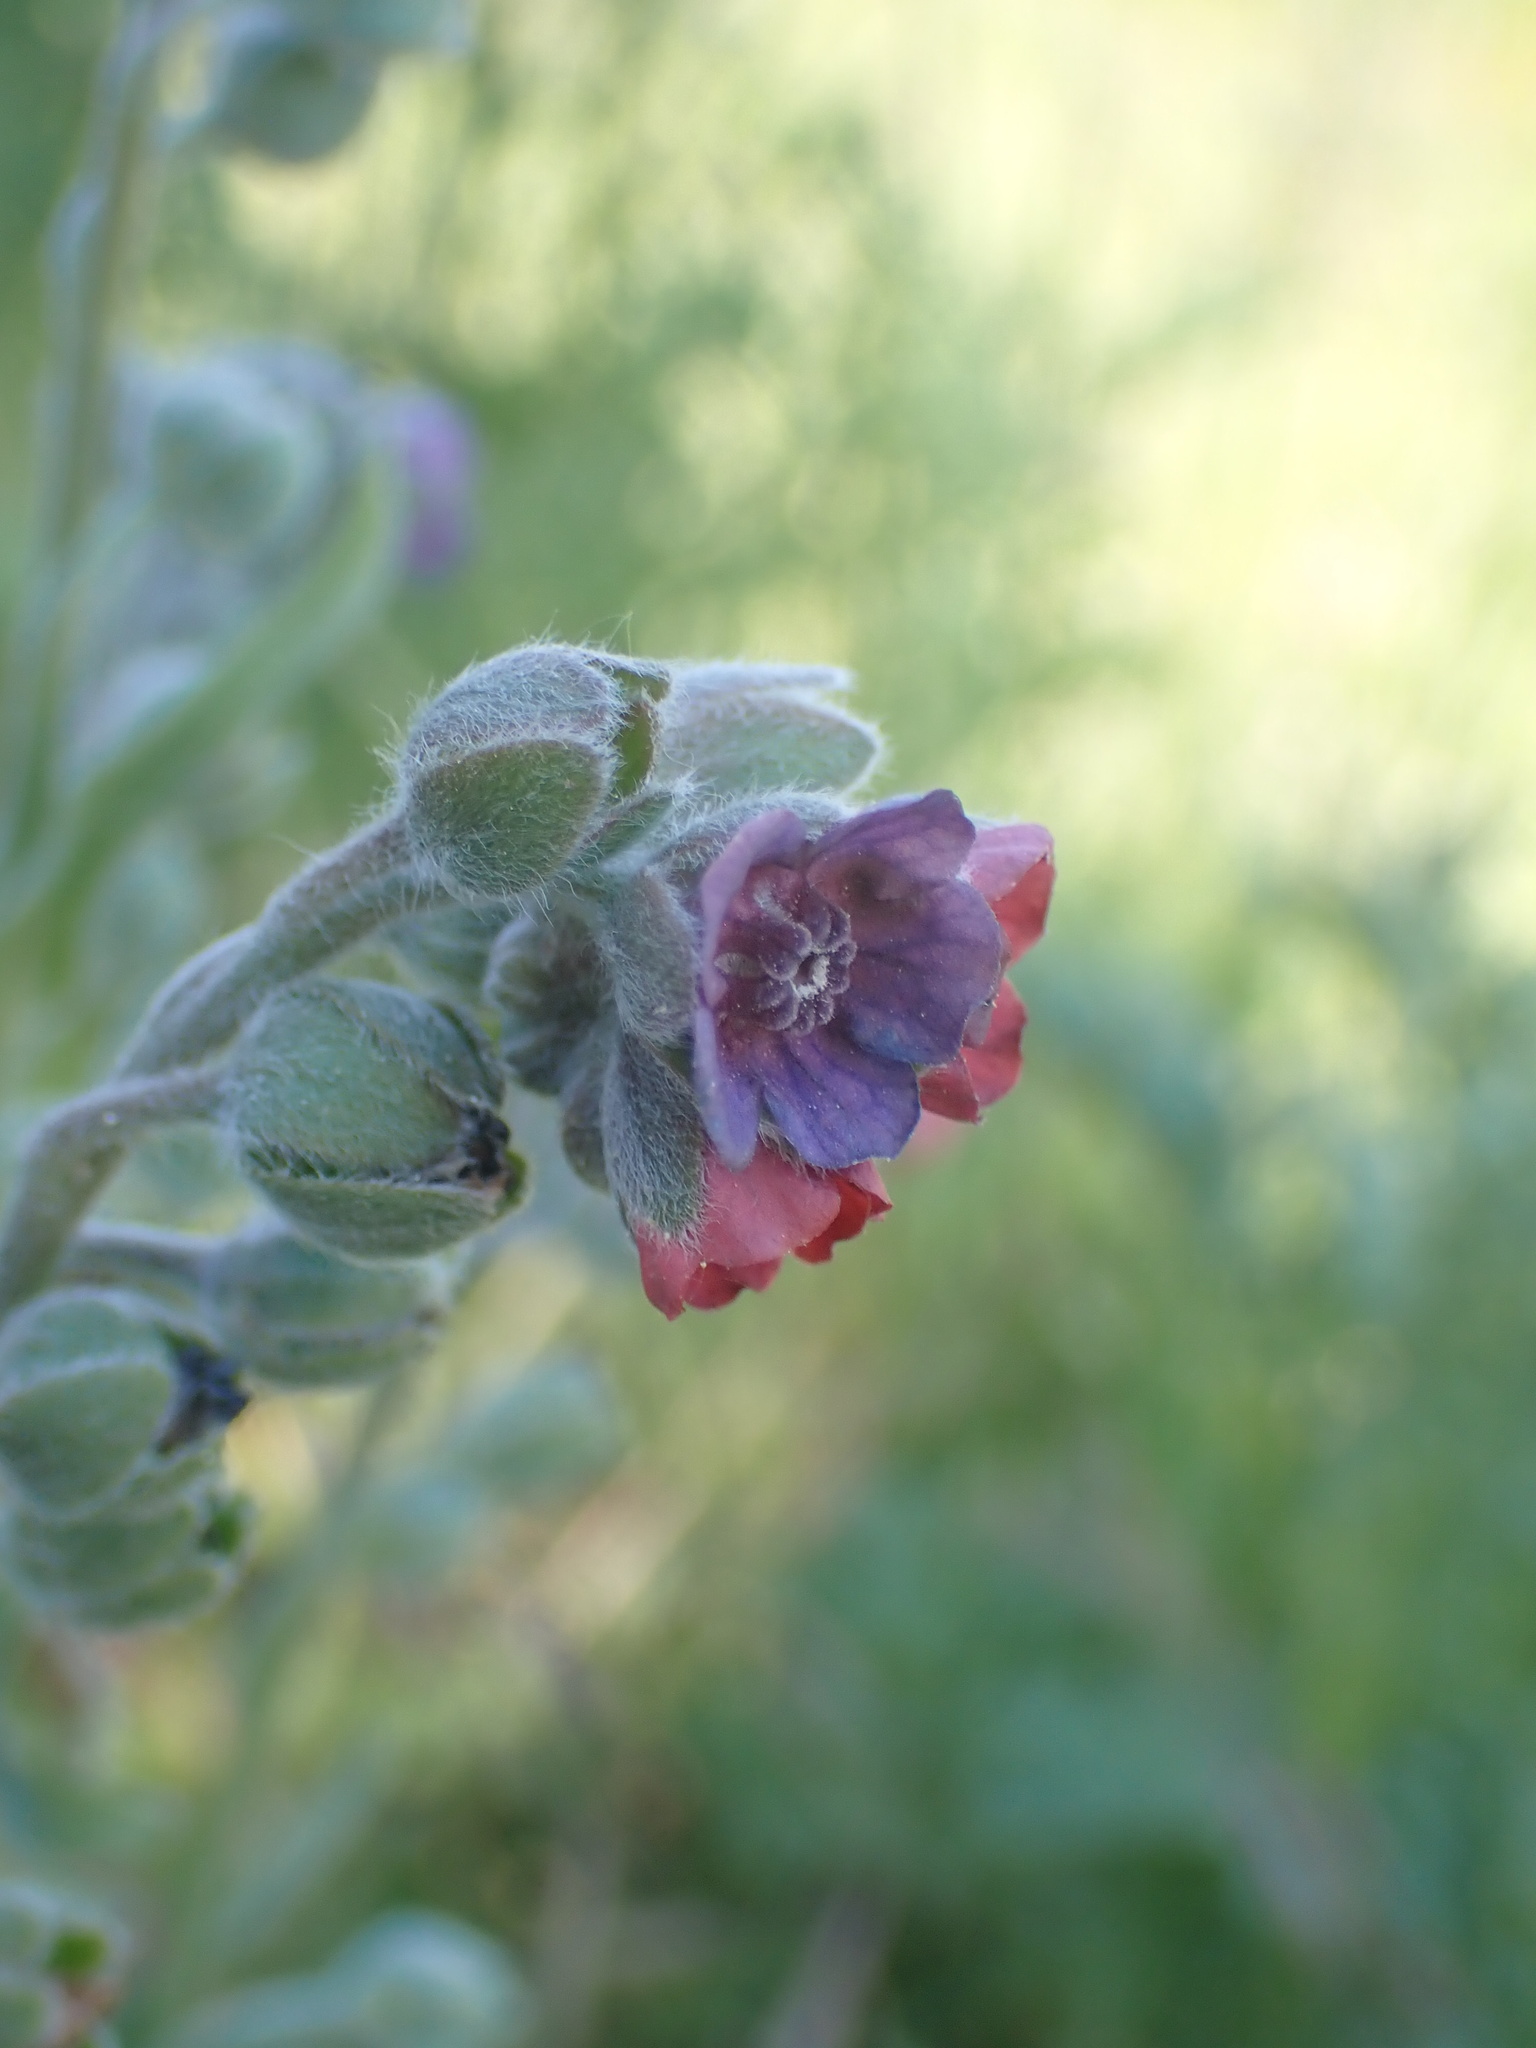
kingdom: Plantae
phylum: Tracheophyta
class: Magnoliopsida
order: Boraginales
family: Boraginaceae
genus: Cynoglossum
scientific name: Cynoglossum officinale
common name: Hound's-tongue
